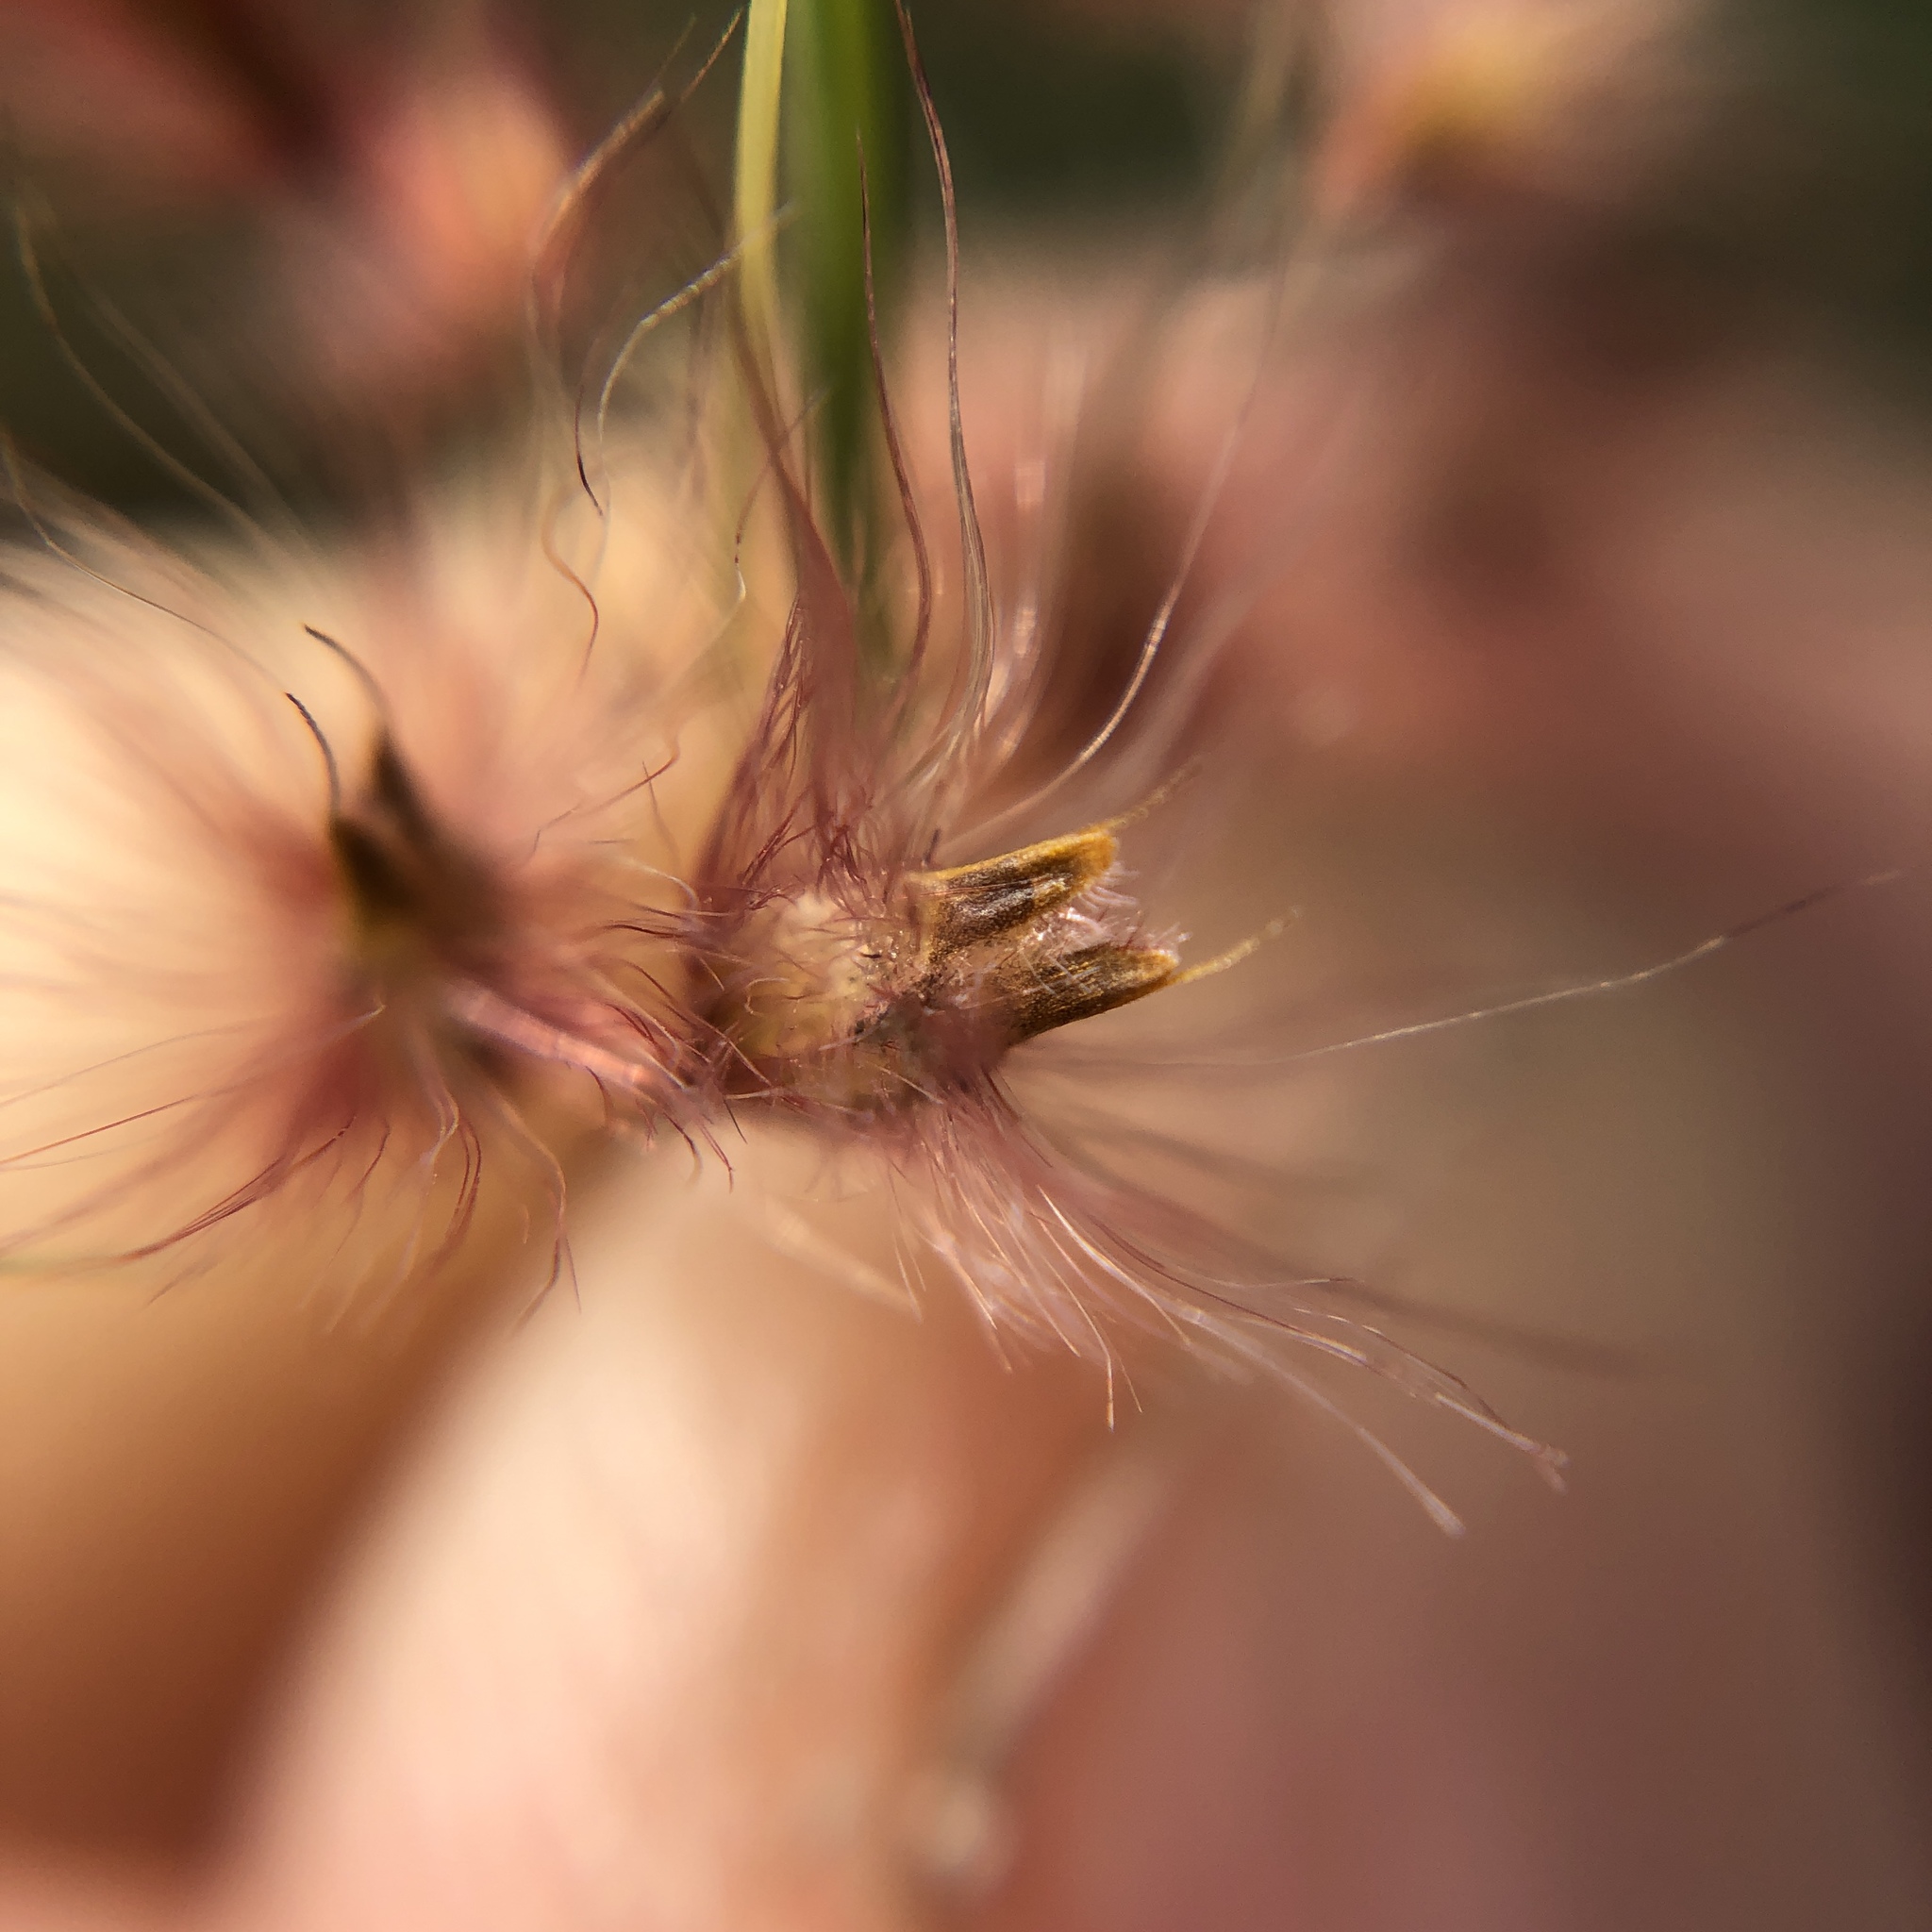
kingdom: Plantae
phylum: Tracheophyta
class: Liliopsida
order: Poales
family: Poaceae
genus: Melinis
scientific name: Melinis repens
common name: Rose natal grass
